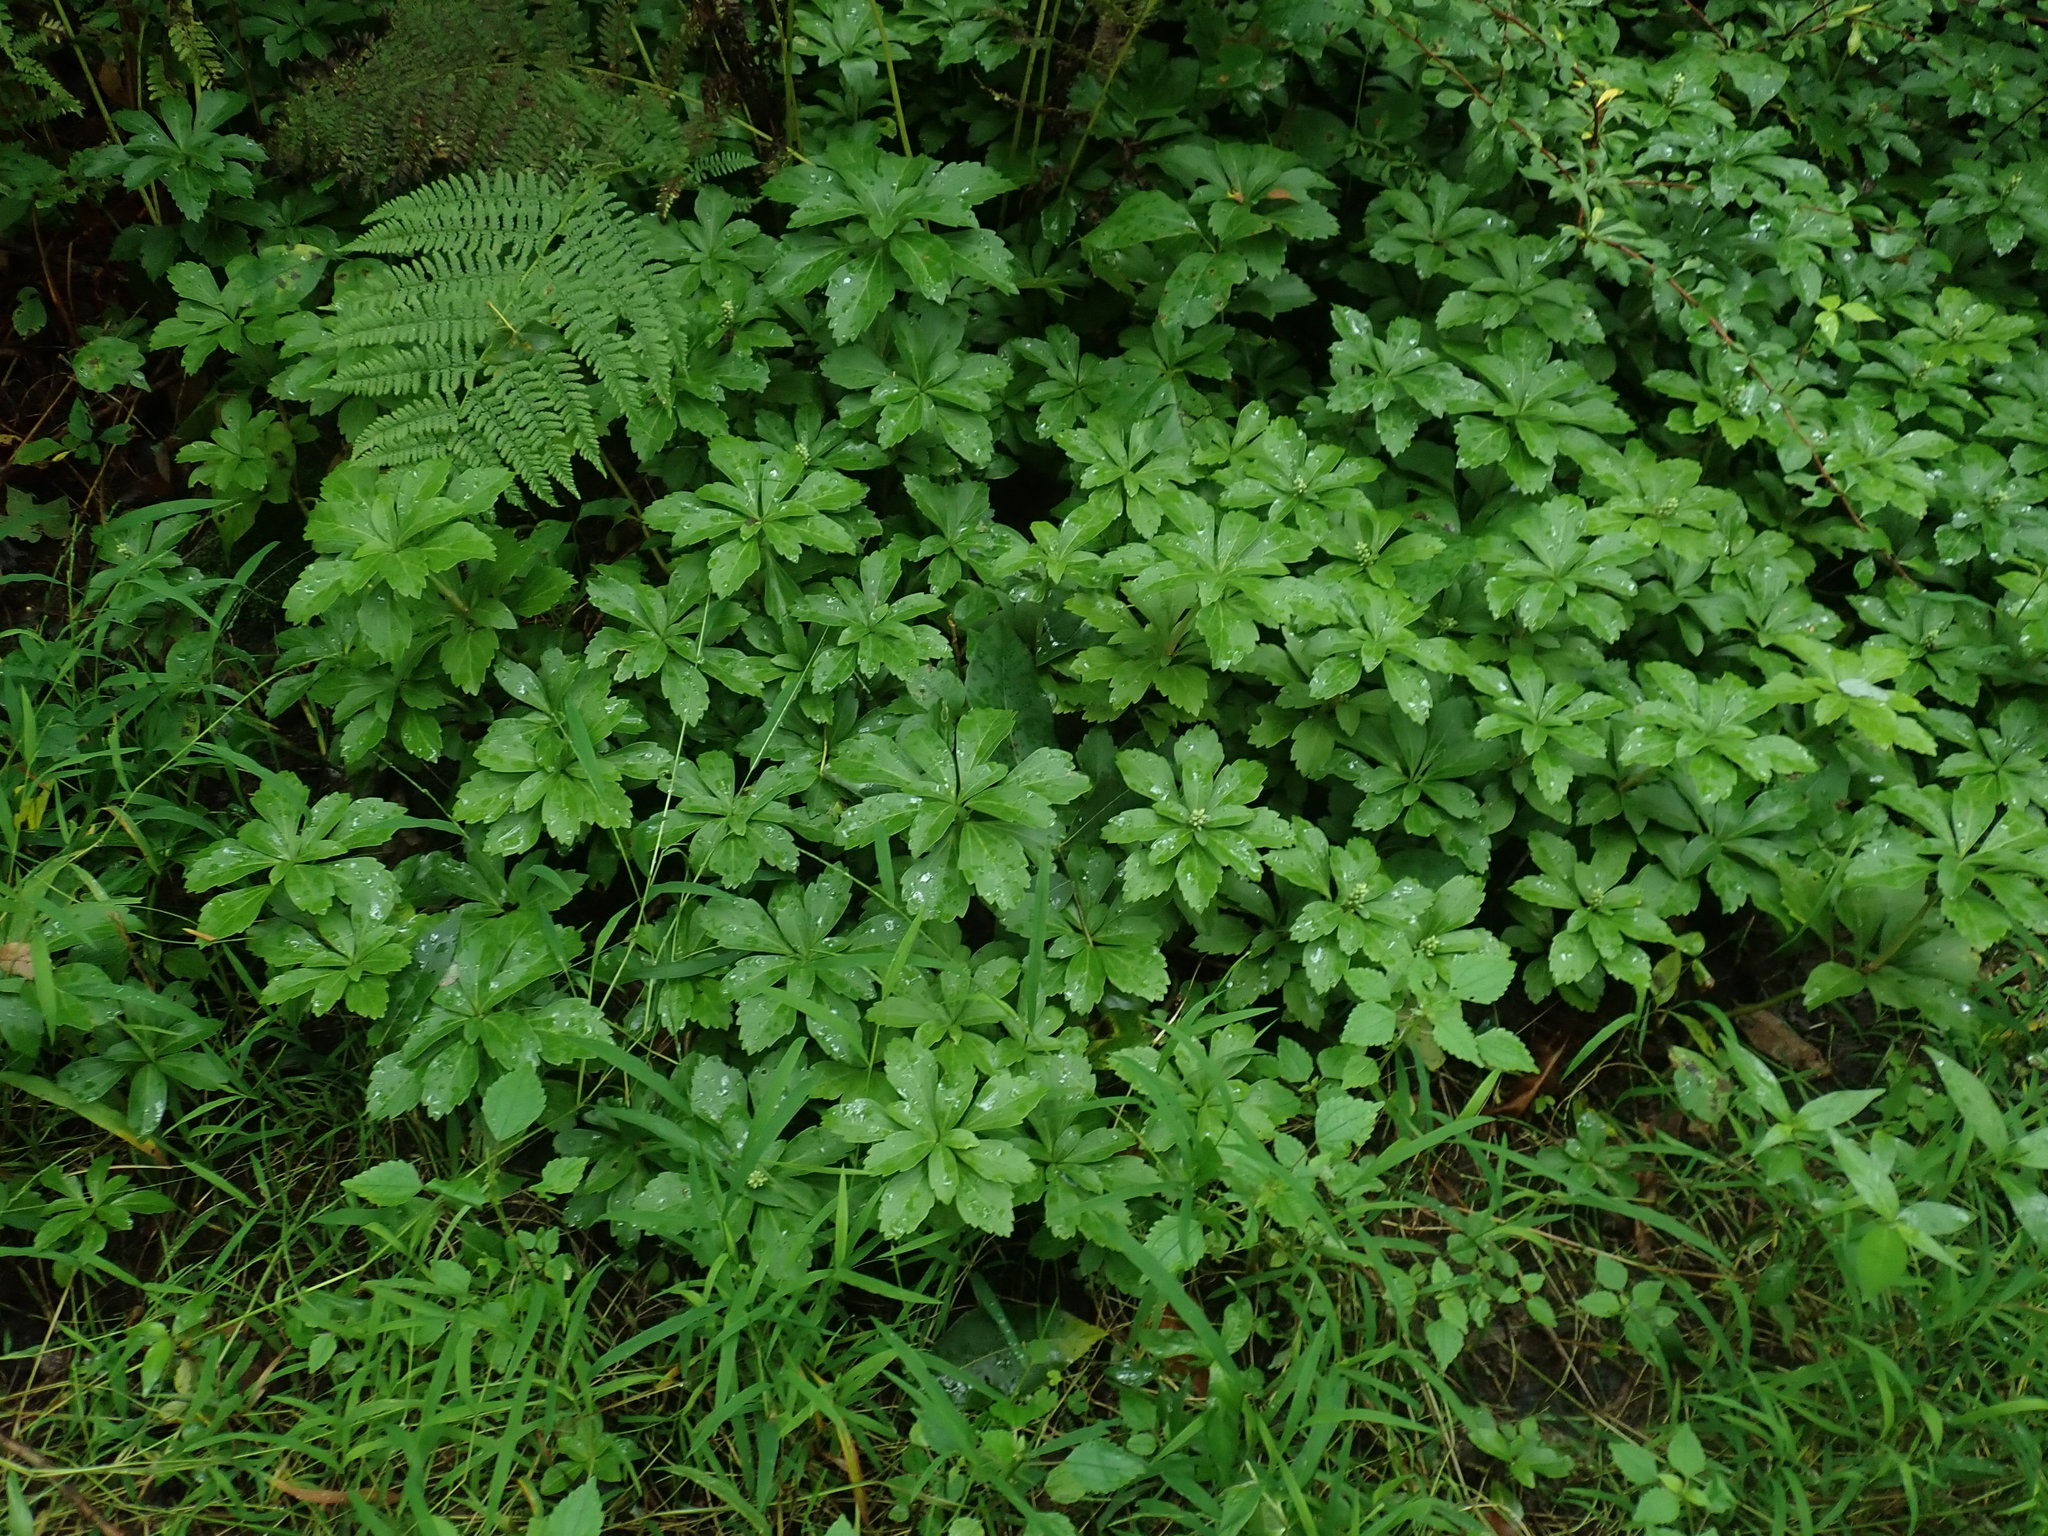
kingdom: Plantae
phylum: Tracheophyta
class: Magnoliopsida
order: Buxales
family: Buxaceae
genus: Pachysandra
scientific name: Pachysandra terminalis
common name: Japanese pachysandra
